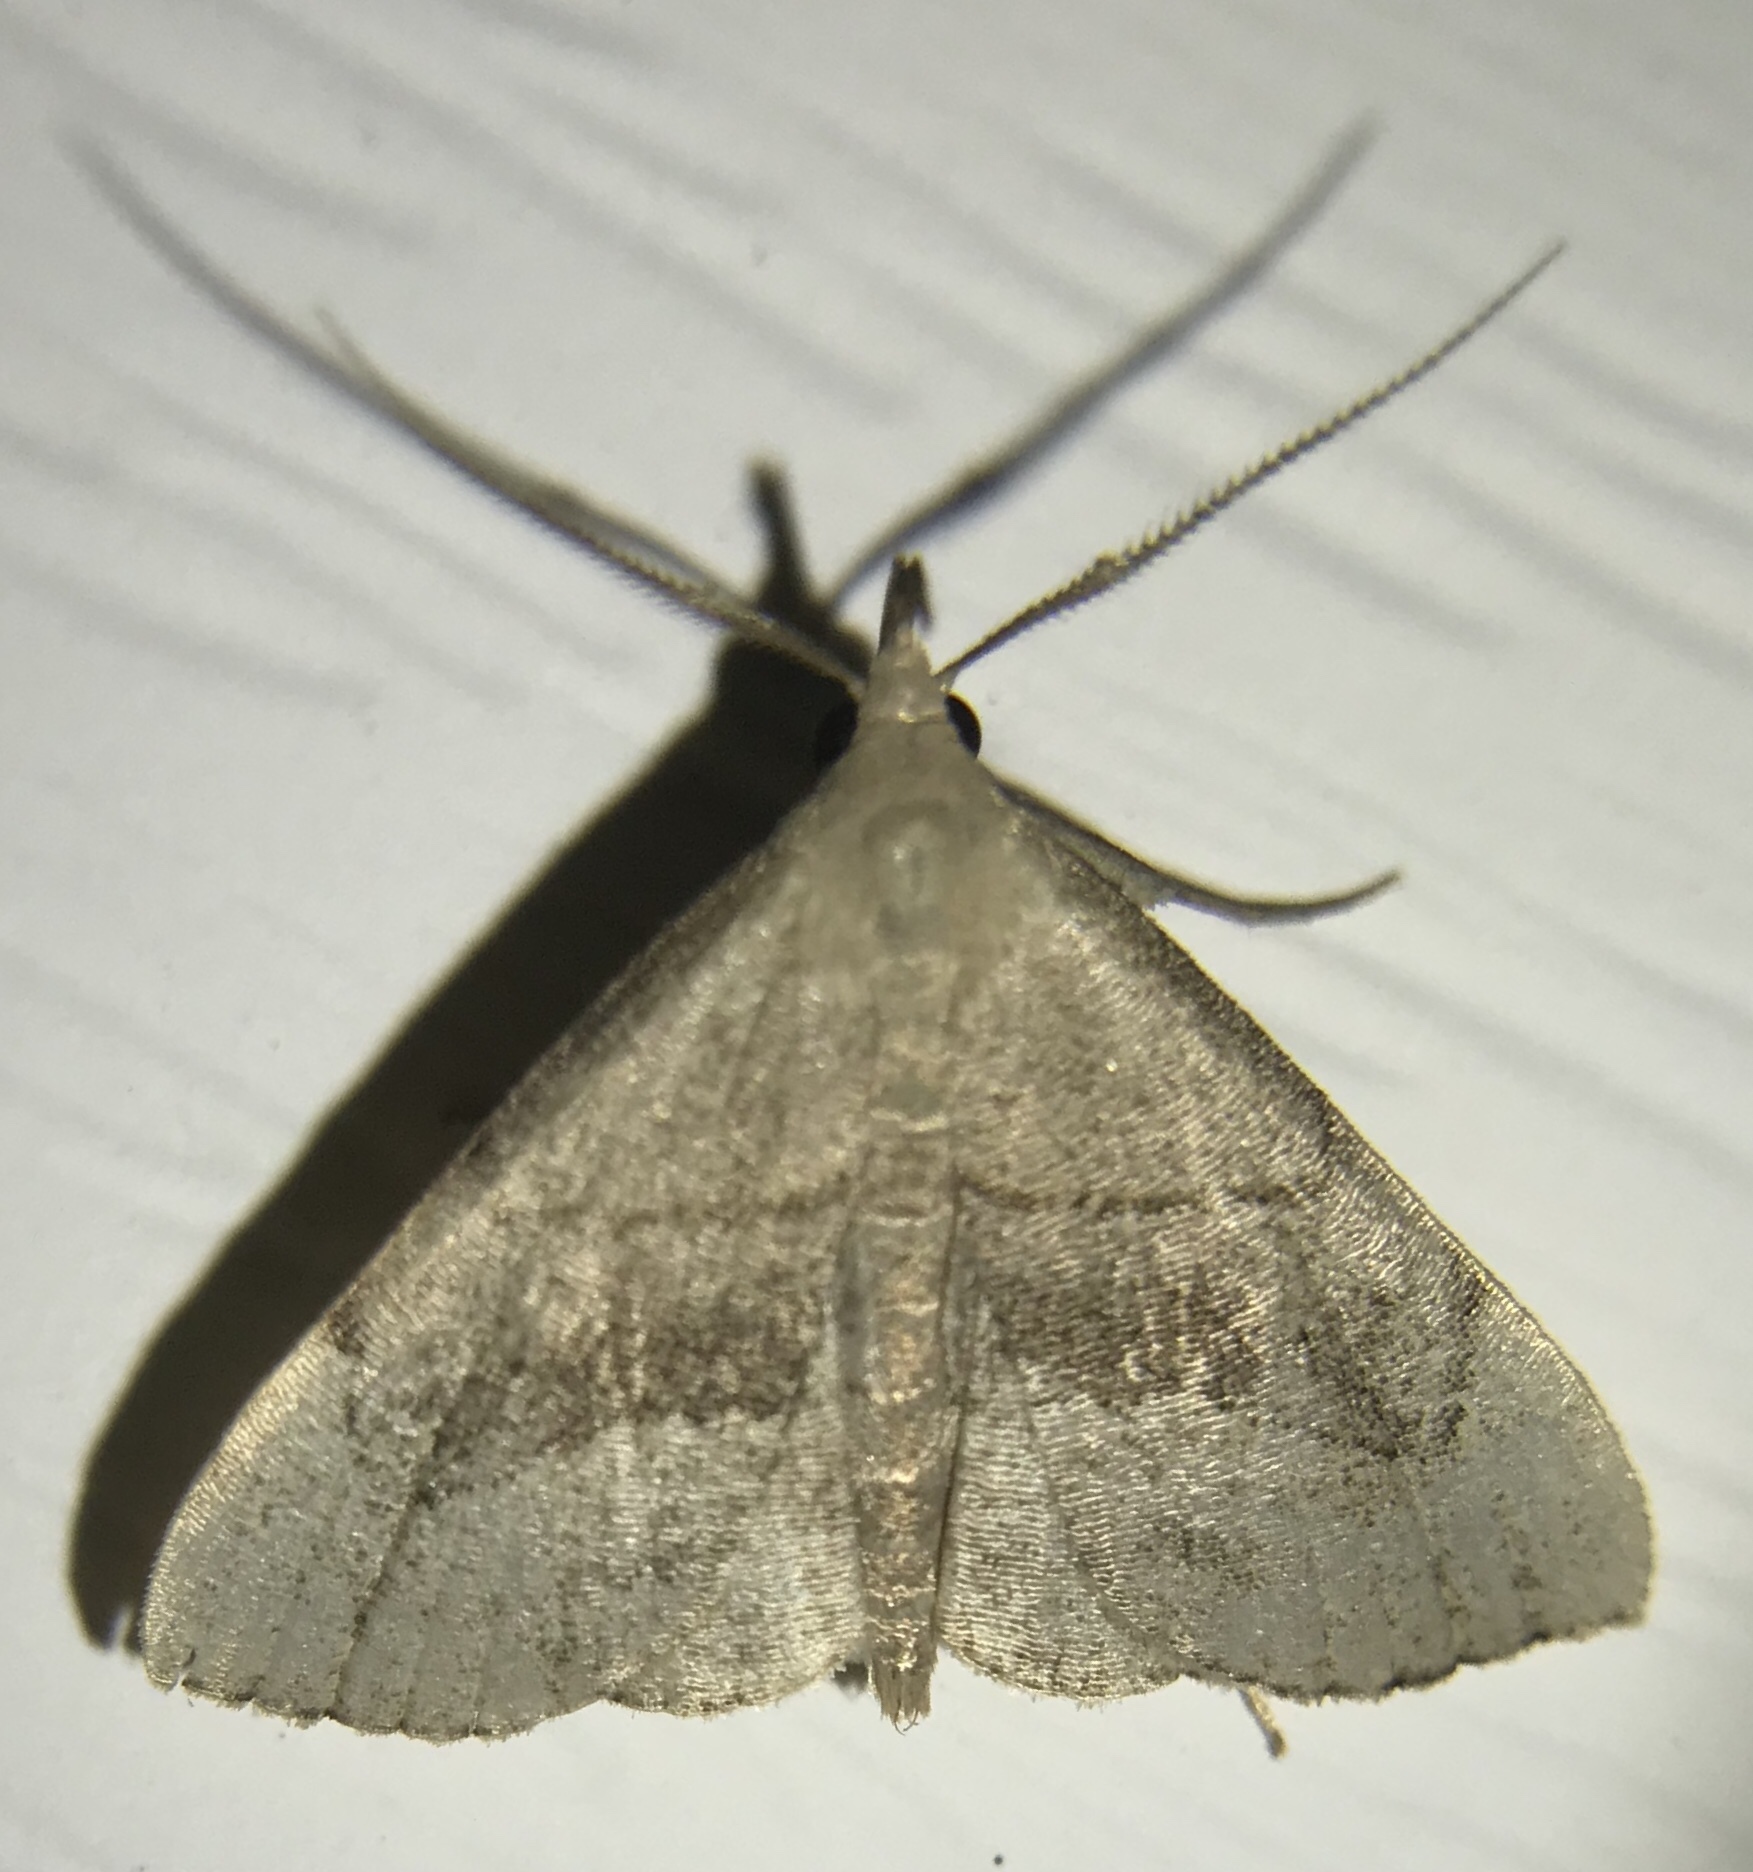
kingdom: Animalia
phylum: Arthropoda
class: Insecta
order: Lepidoptera
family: Erebidae
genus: Macrochilo
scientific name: Macrochilo litophora
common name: Brown-lined owlet
